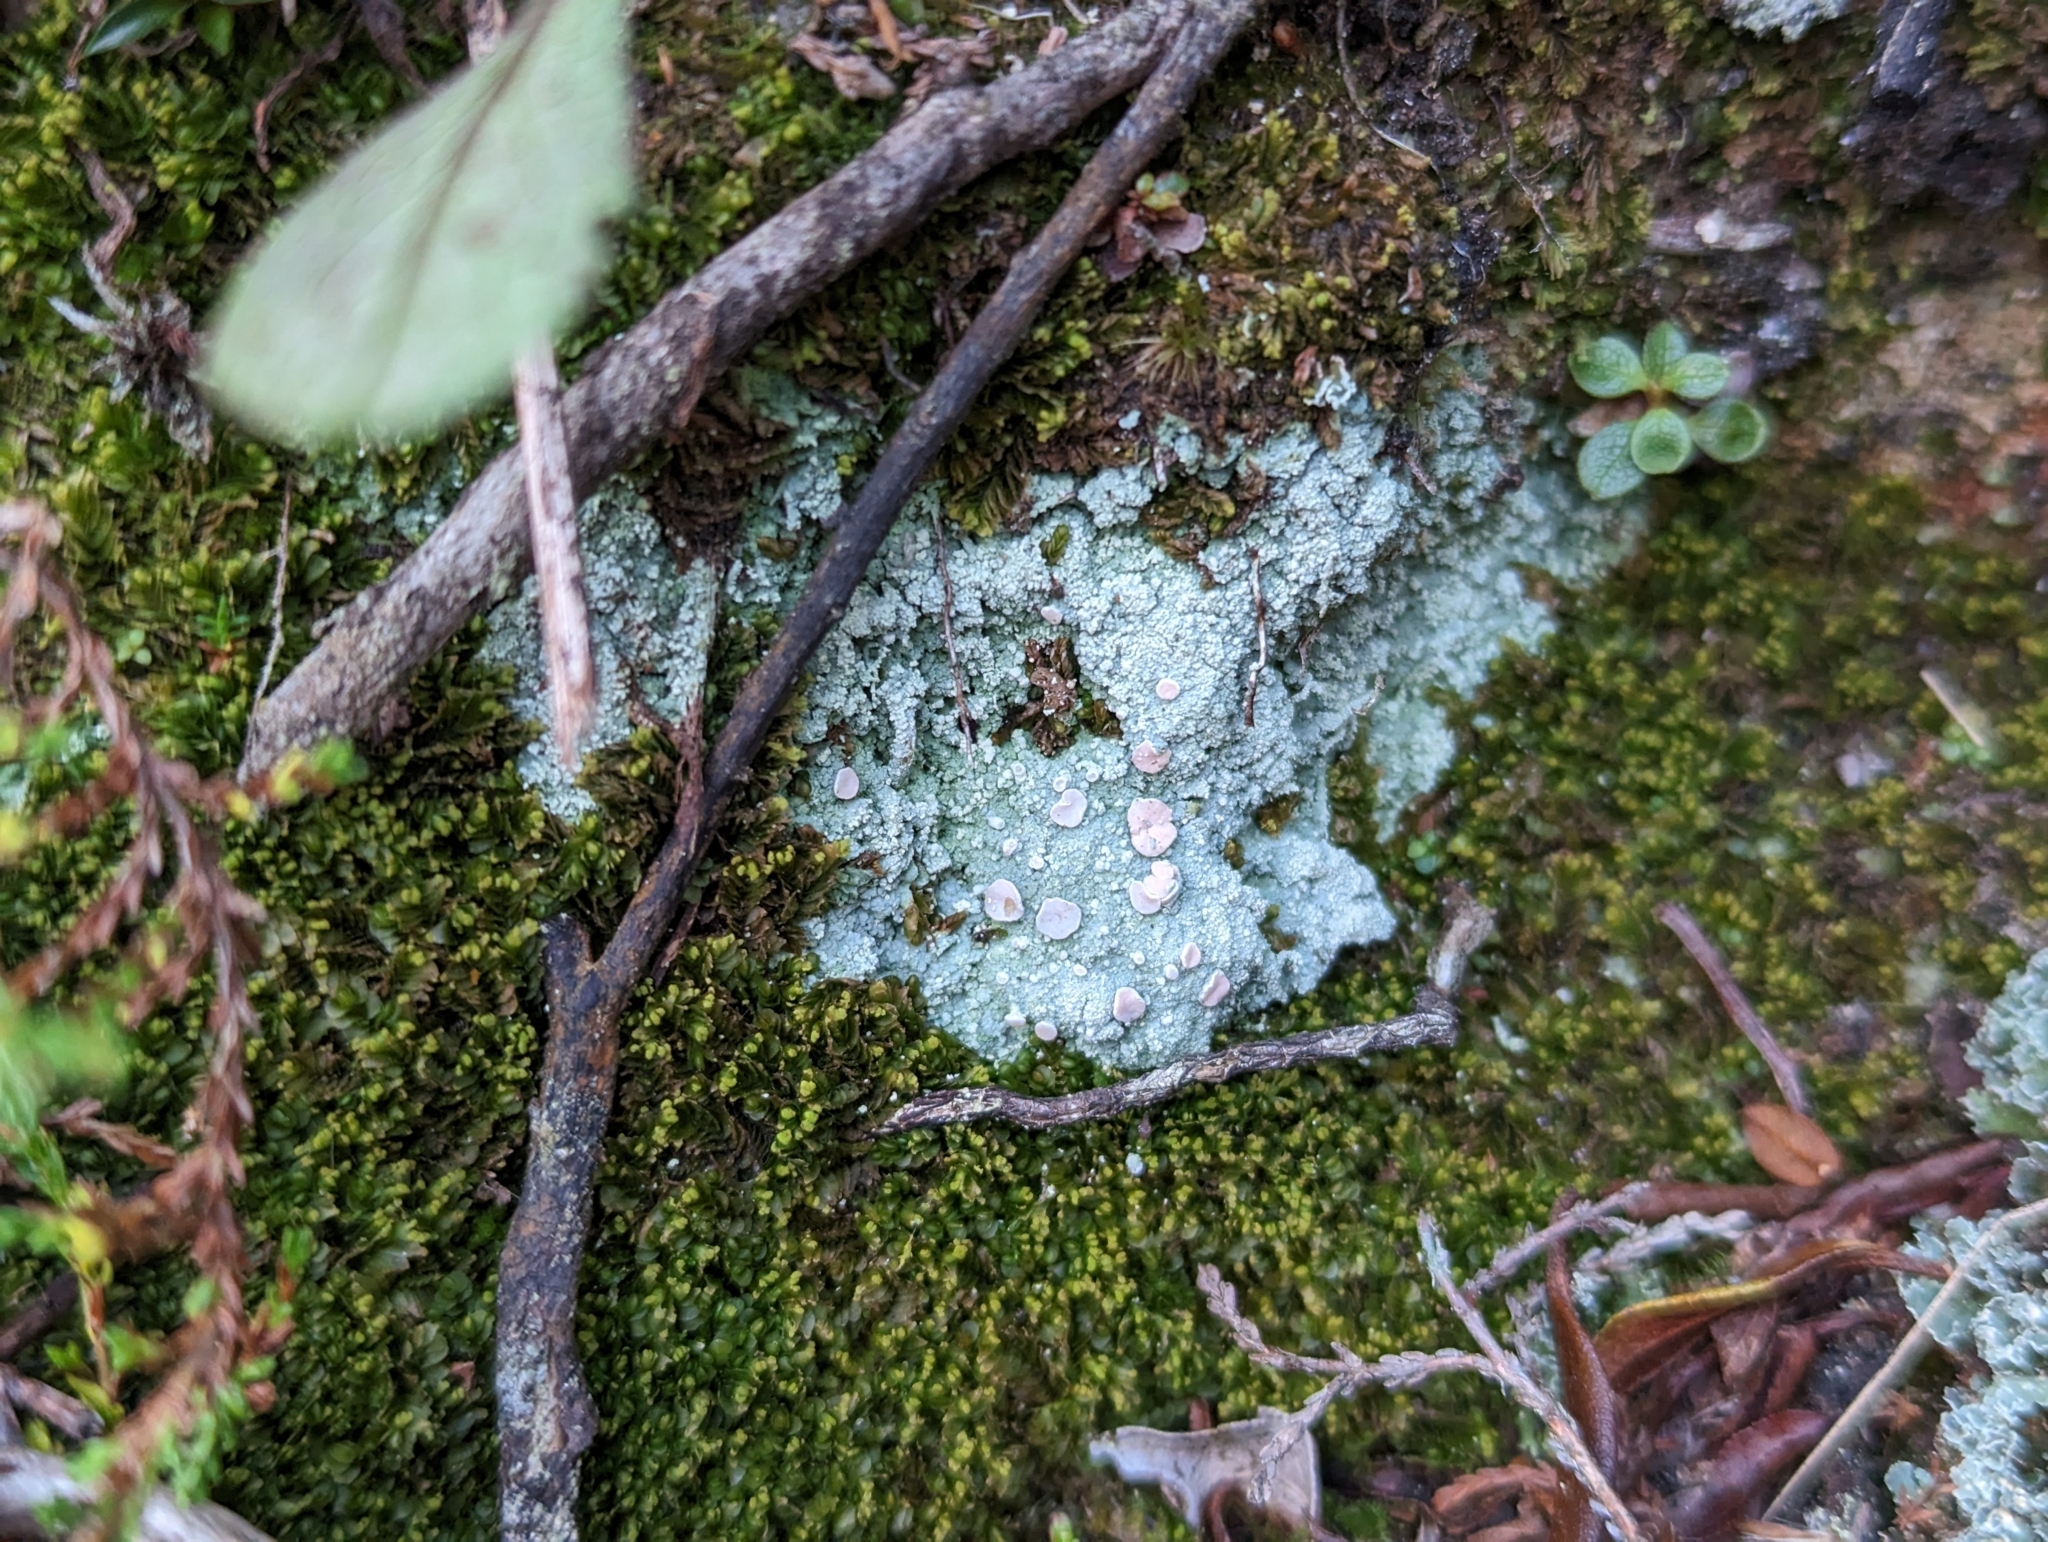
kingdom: Fungi
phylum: Ascomycota
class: Lecanoromycetes
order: Pertusariales
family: Icmadophilaceae
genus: Icmadophila
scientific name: Icmadophila ericetorum
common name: Candy lichen
